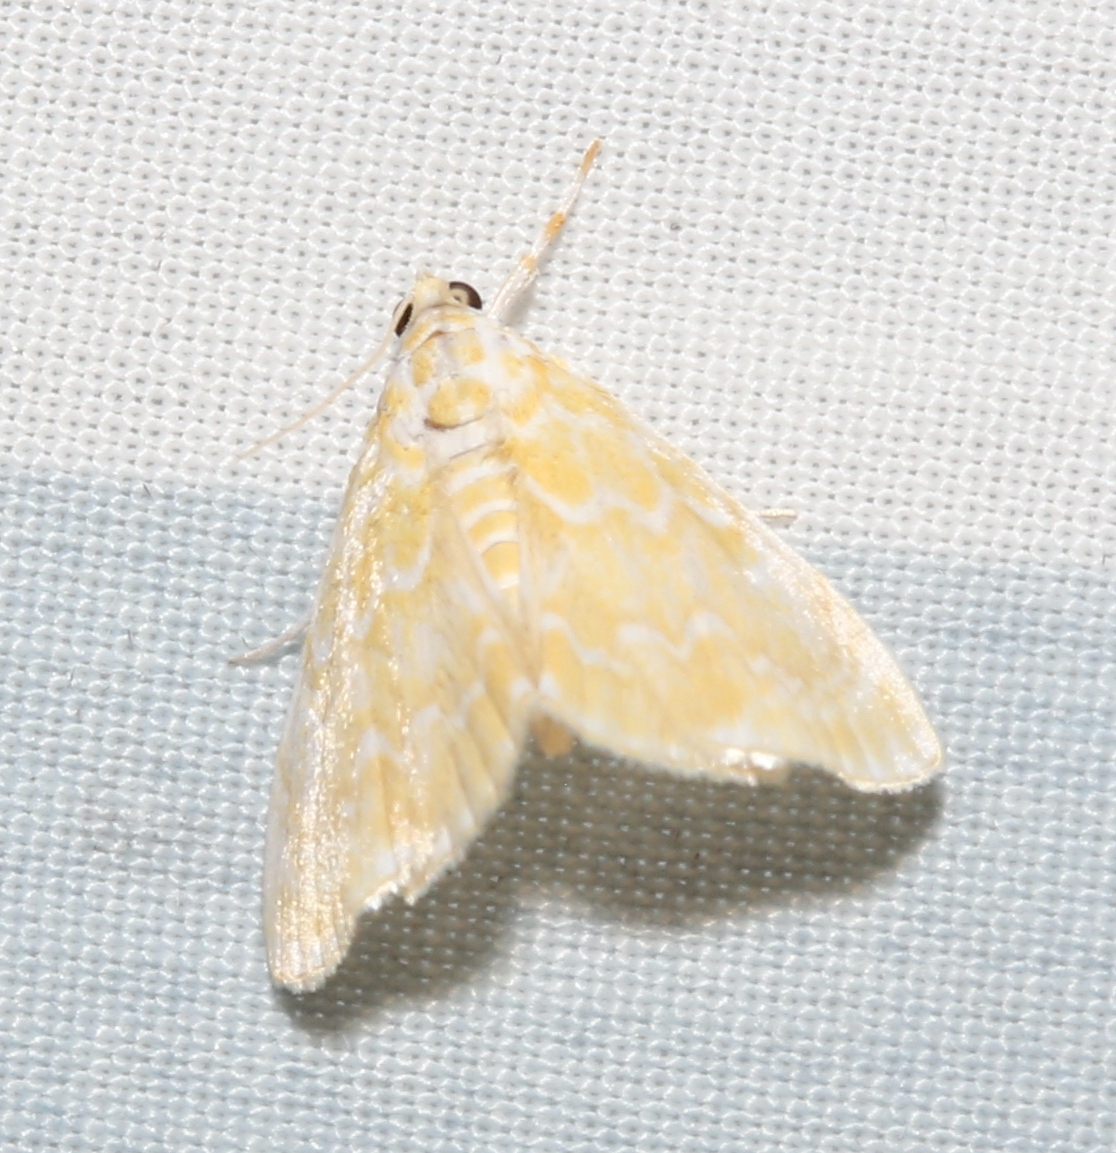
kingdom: Animalia
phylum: Arthropoda
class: Insecta
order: Lepidoptera
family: Crambidae
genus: Glaphyria
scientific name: Glaphyria glaphyralis
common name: Common glaphyria moth
